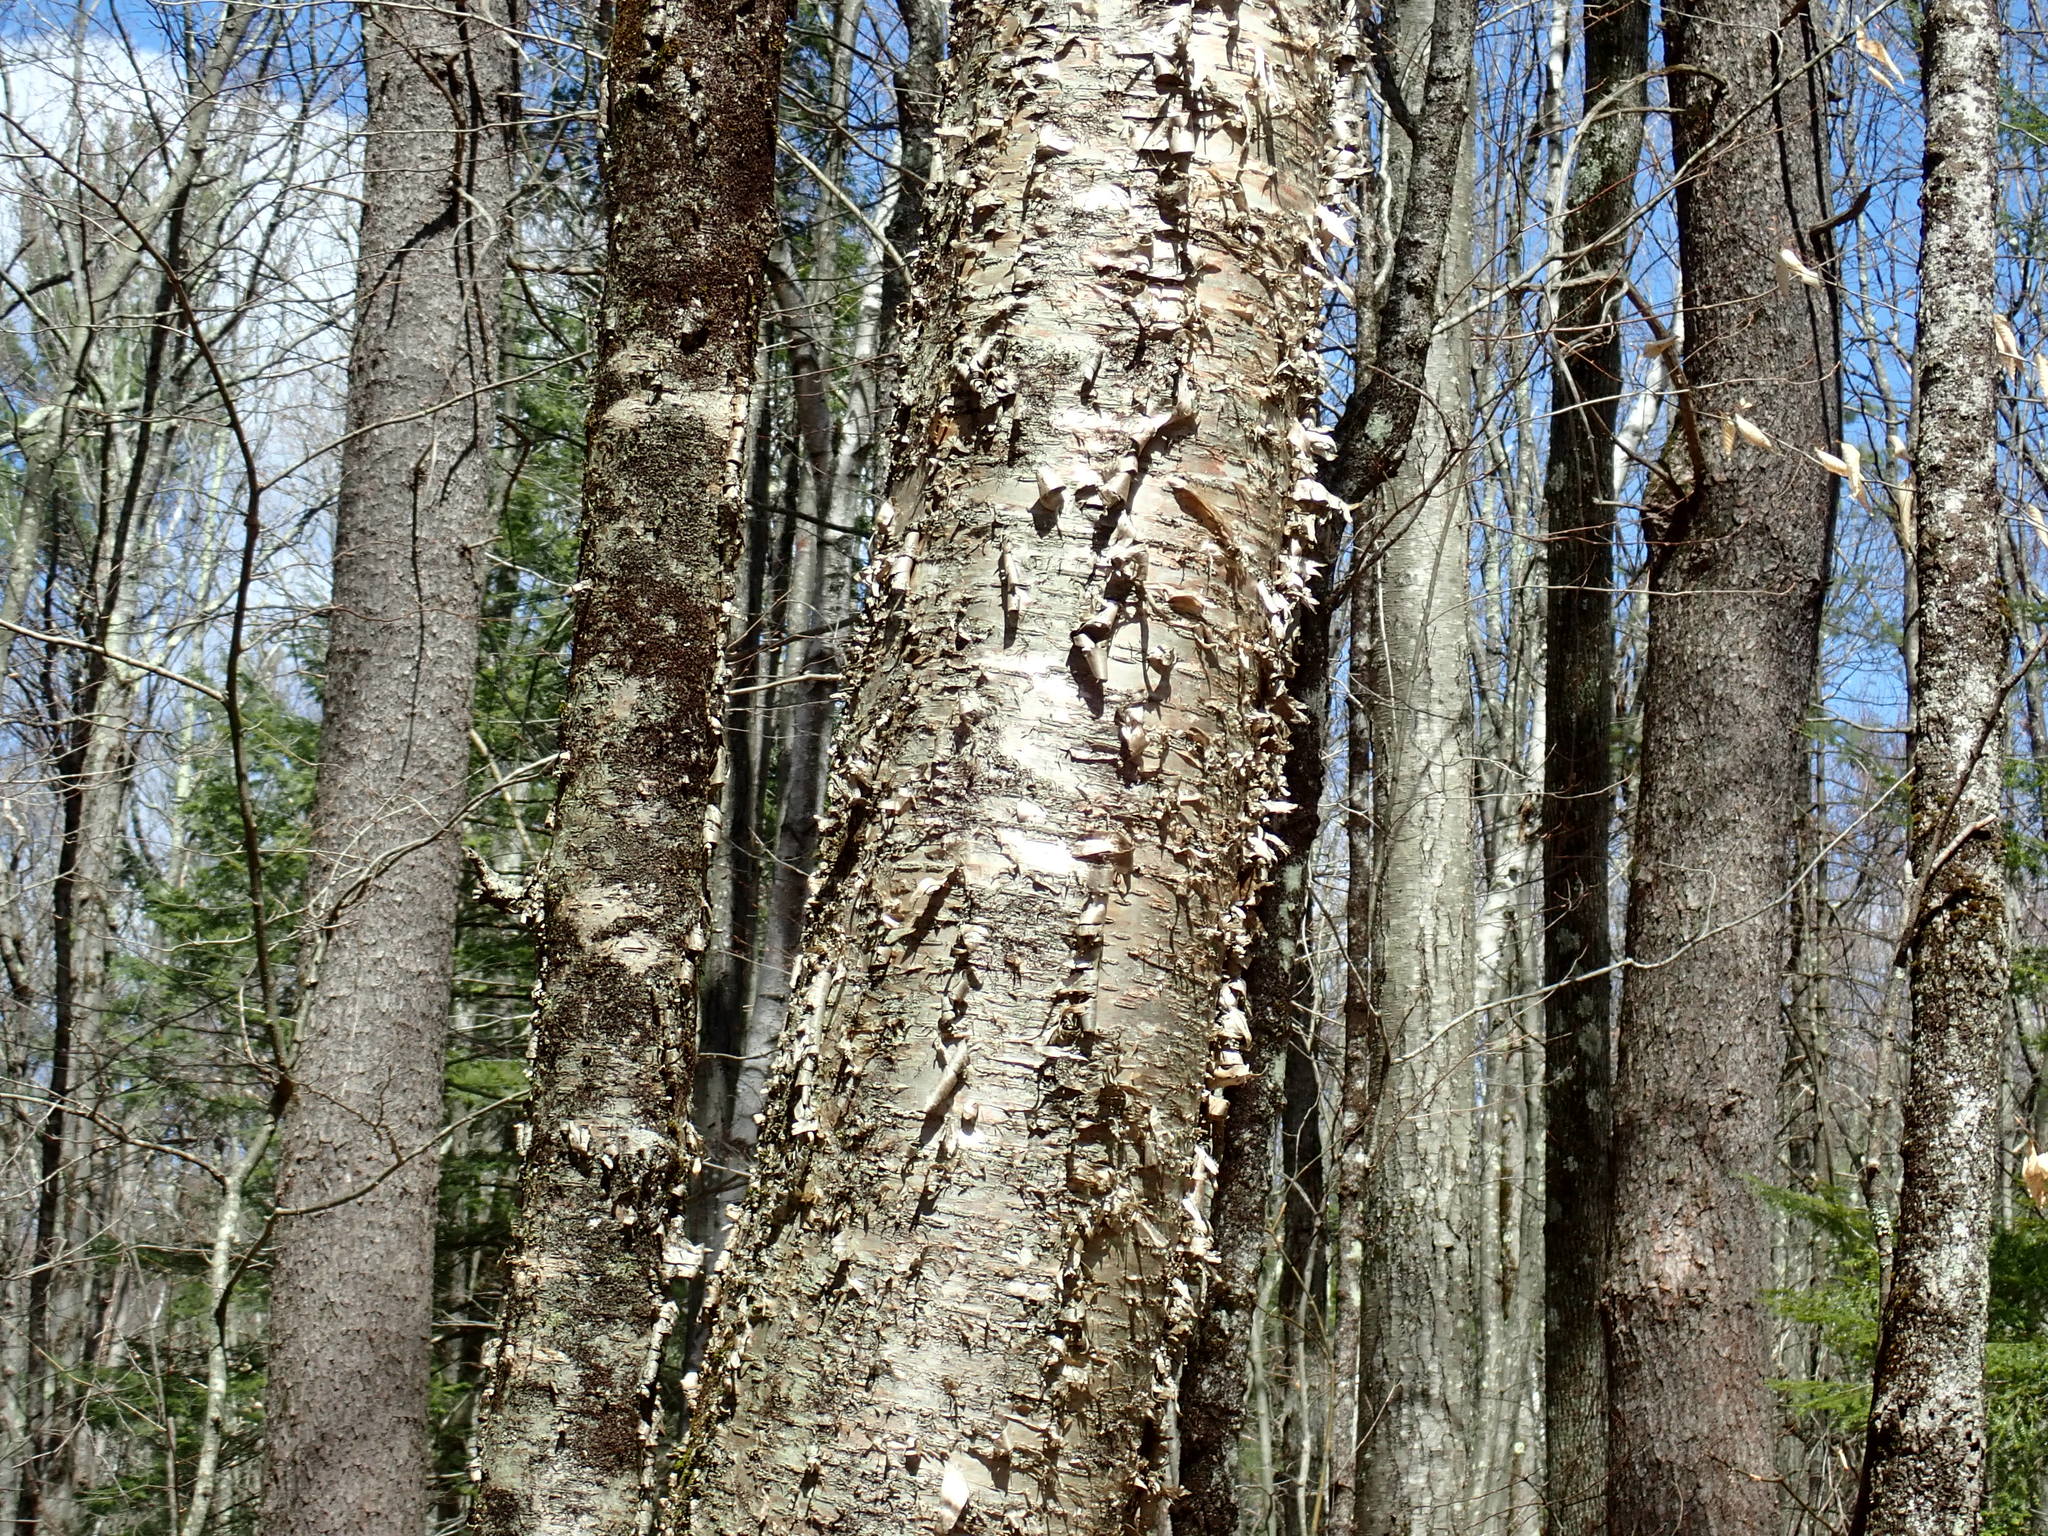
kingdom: Plantae
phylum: Tracheophyta
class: Magnoliopsida
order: Fagales
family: Betulaceae
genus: Betula
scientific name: Betula alleghaniensis
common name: Yellow birch
